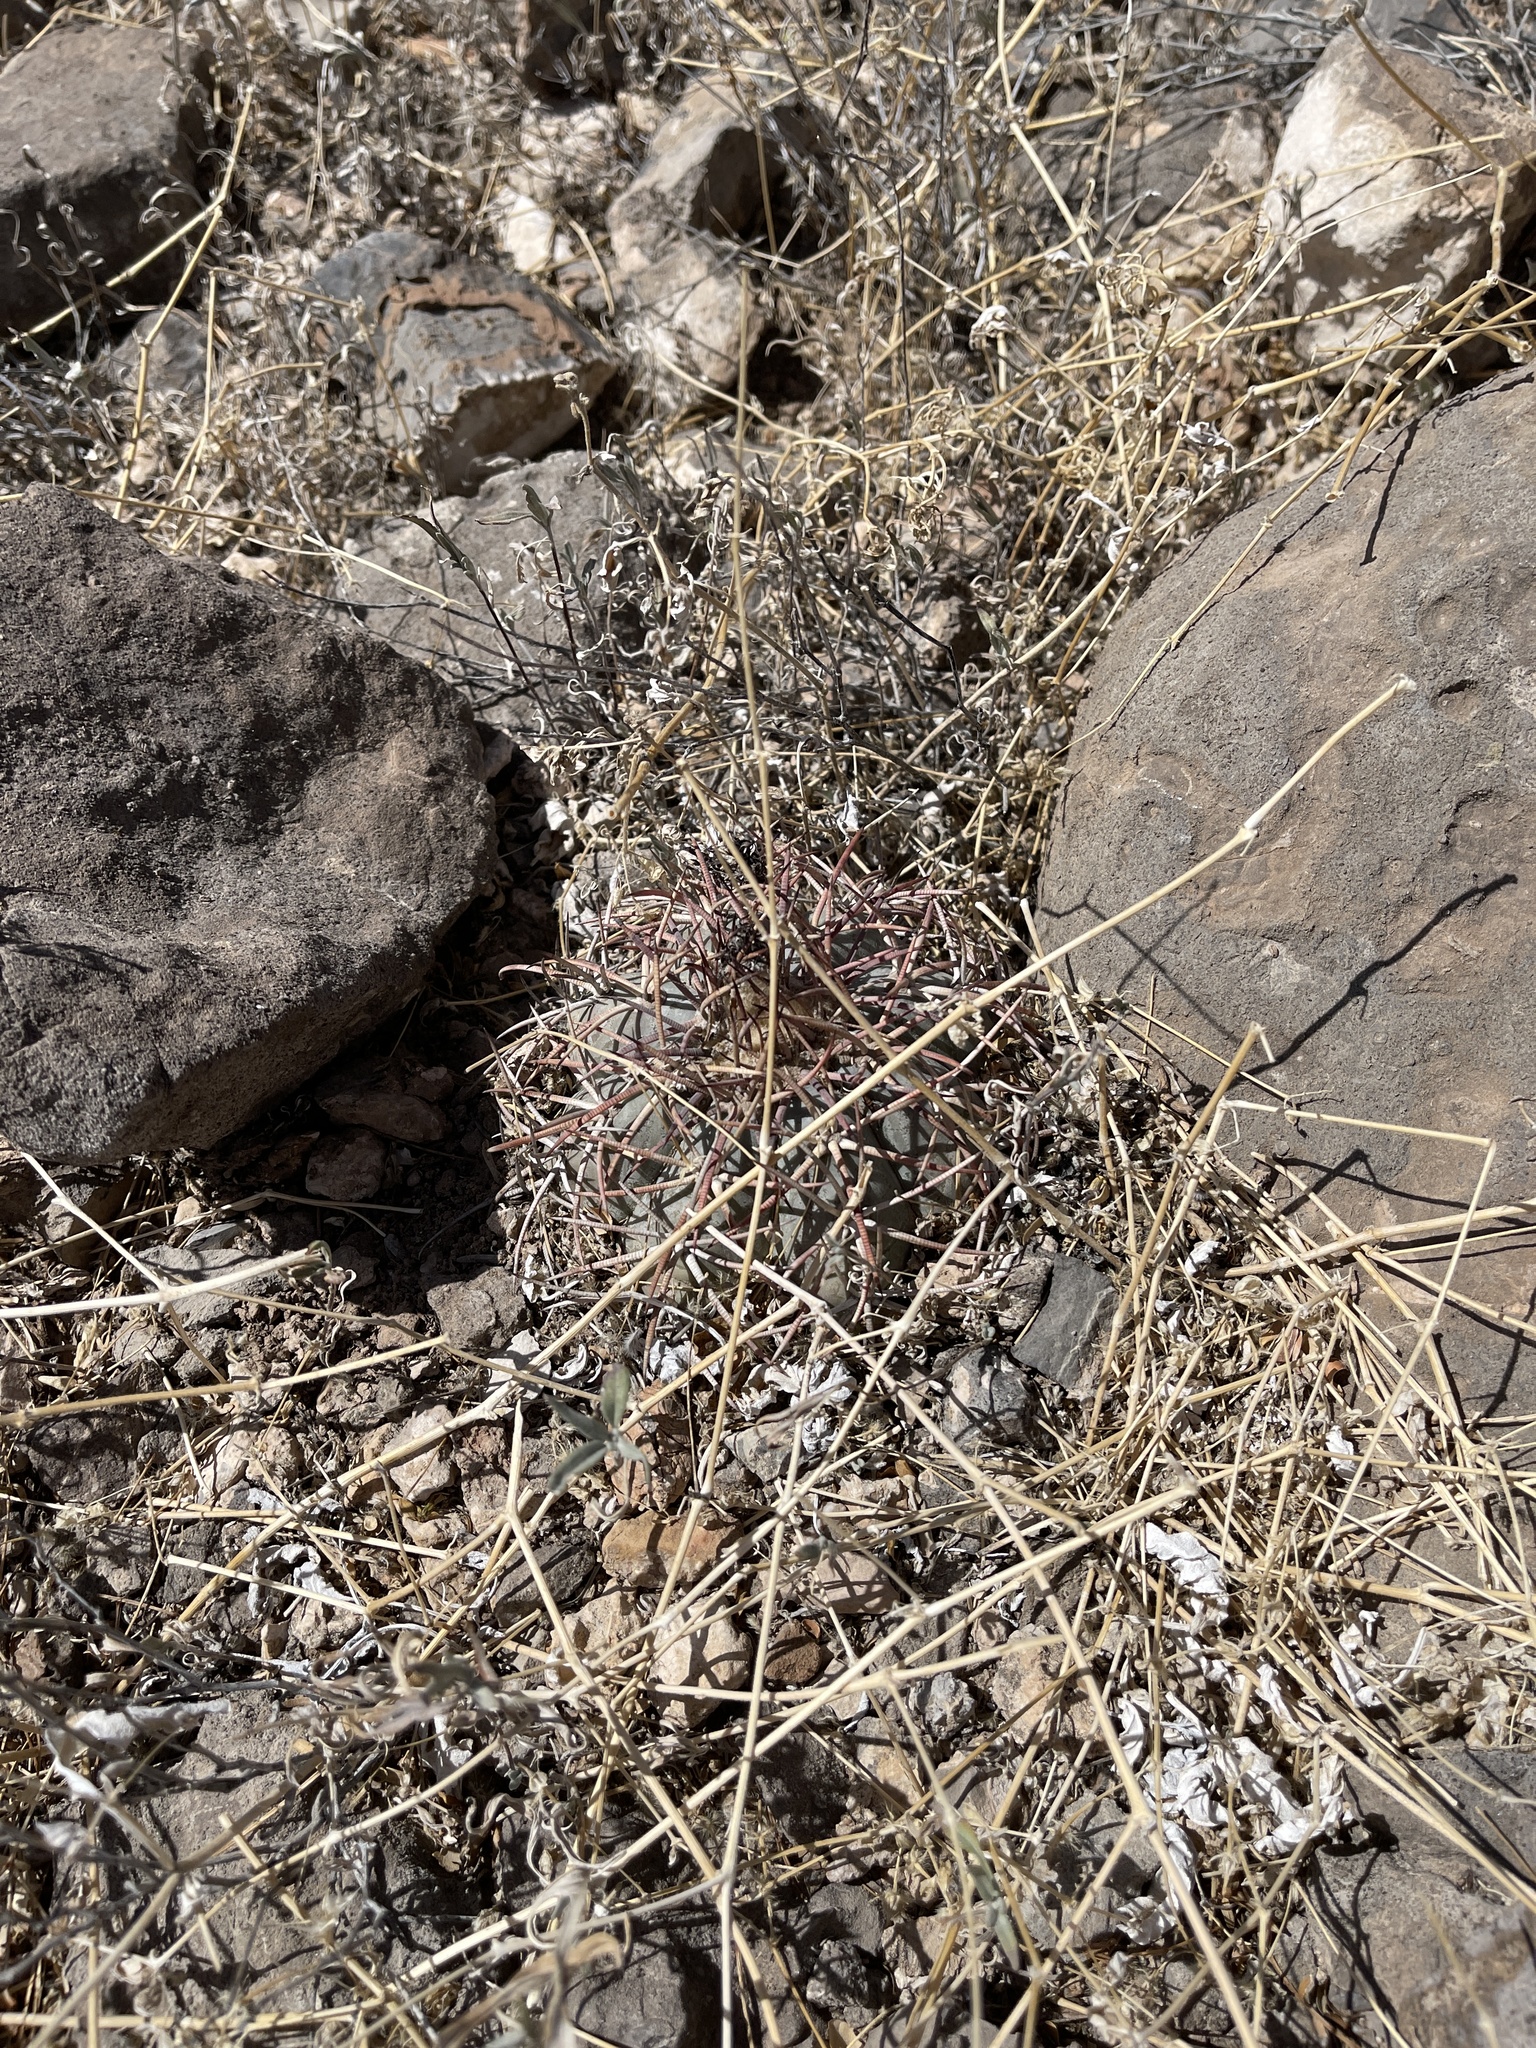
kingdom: Plantae
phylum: Tracheophyta
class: Magnoliopsida
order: Caryophyllales
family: Cactaceae
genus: Echinocactus
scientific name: Echinocactus horizonthalonius
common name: Devilshead
